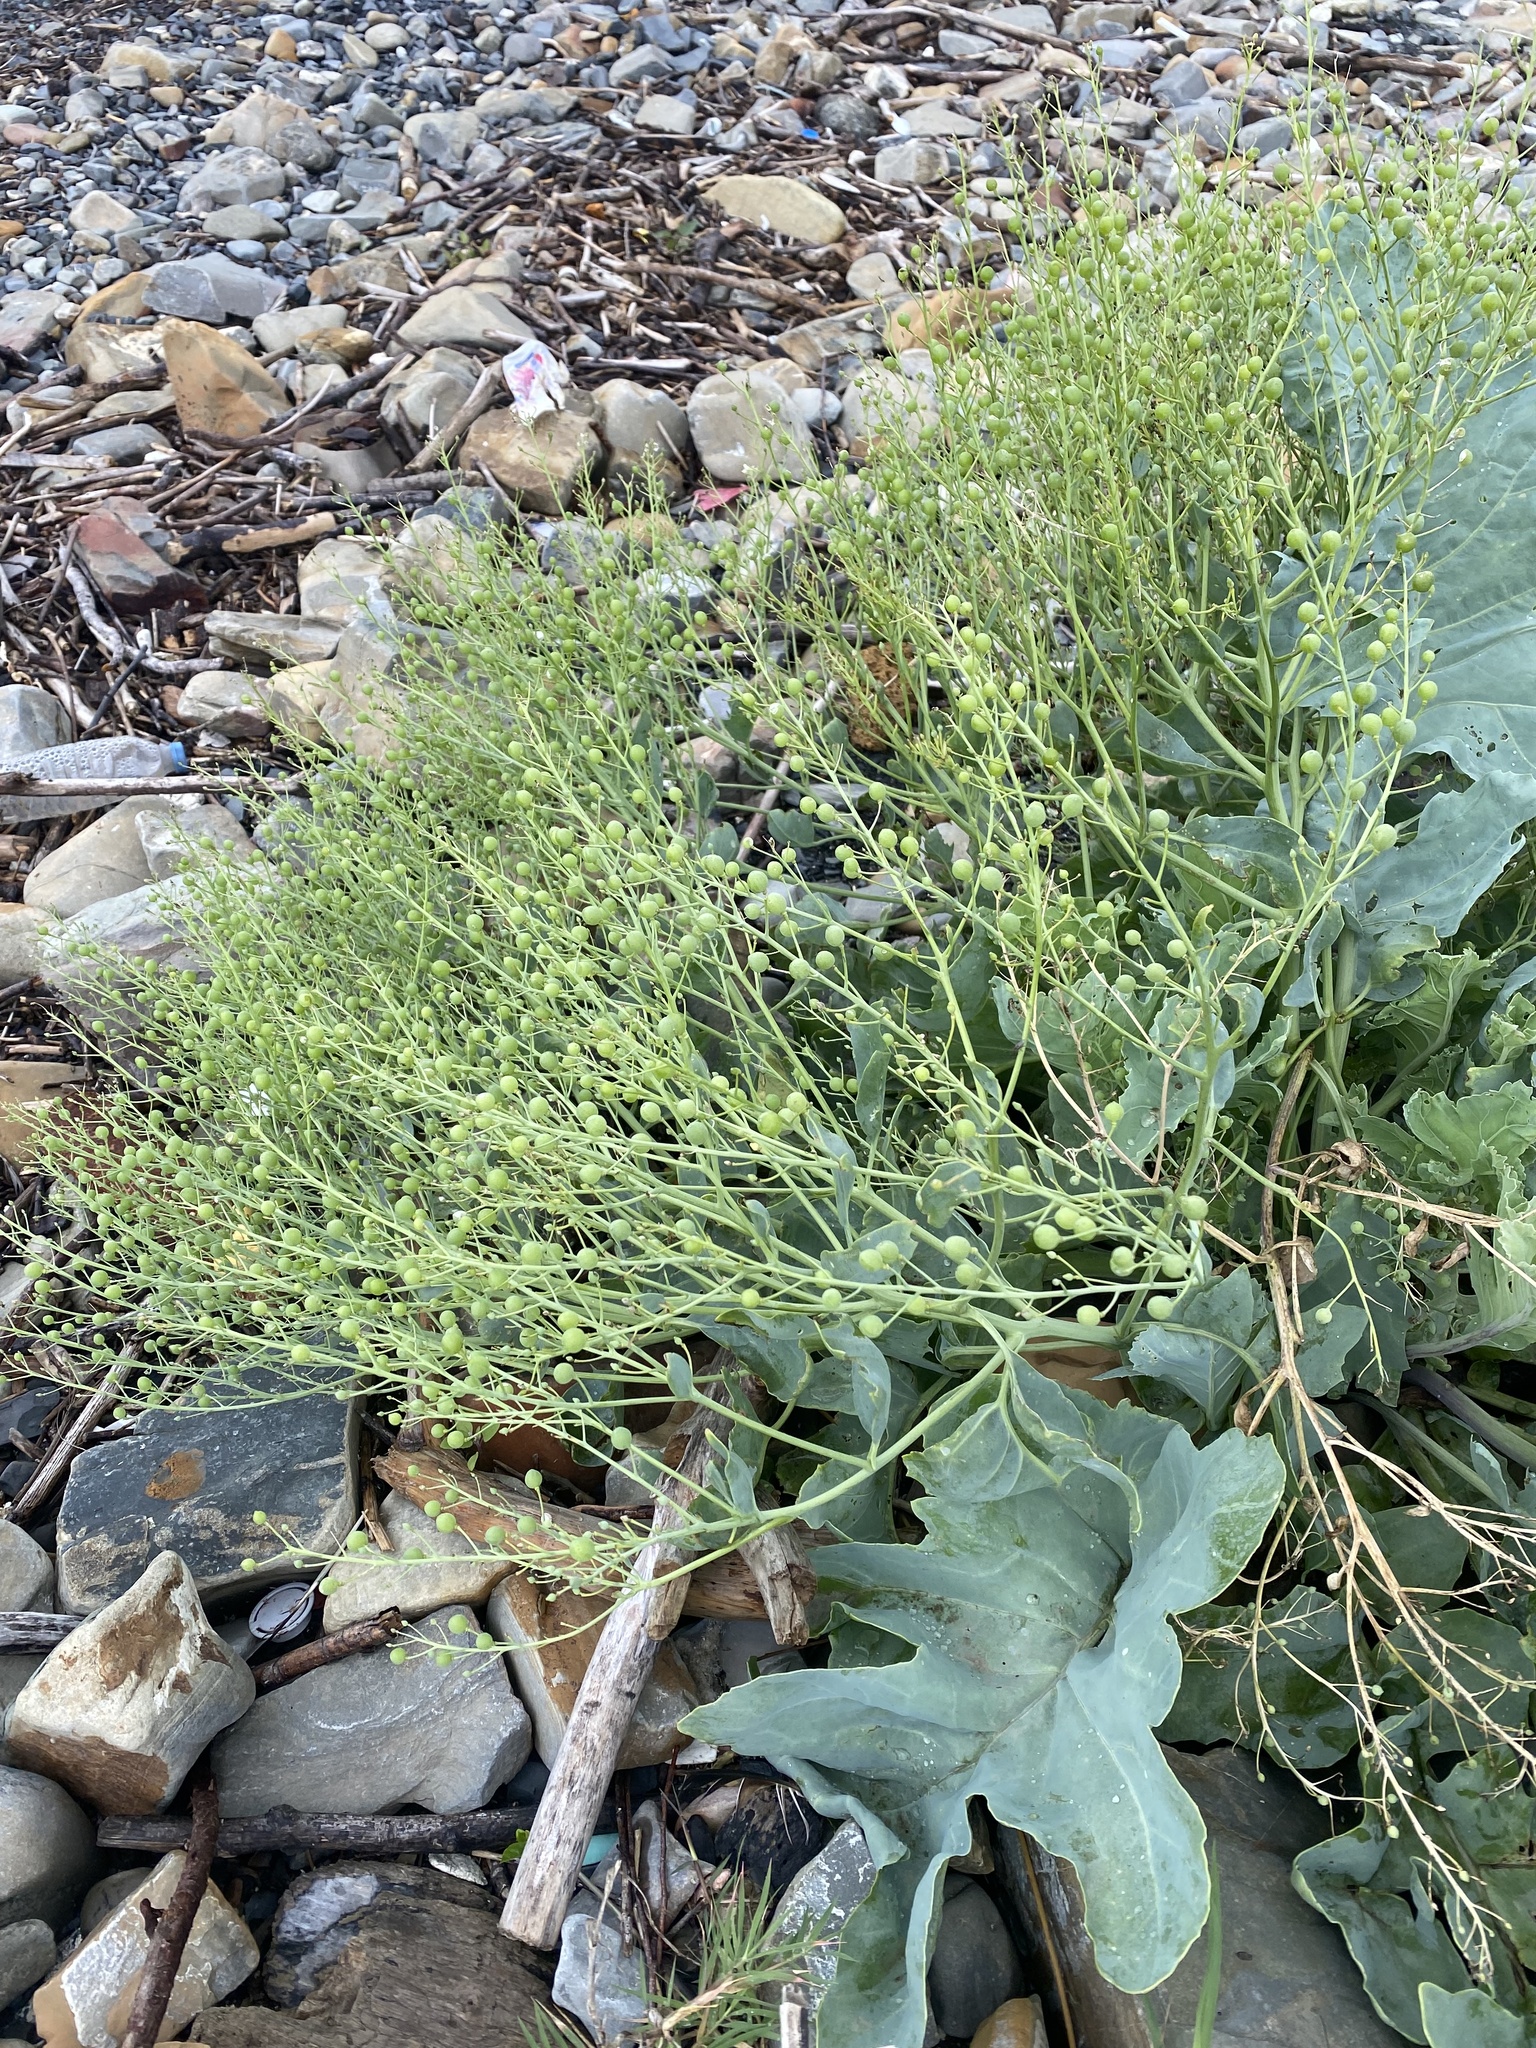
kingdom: Plantae
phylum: Tracheophyta
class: Magnoliopsida
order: Brassicales
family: Brassicaceae
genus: Crambe
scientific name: Crambe maritima
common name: Sea-kale
